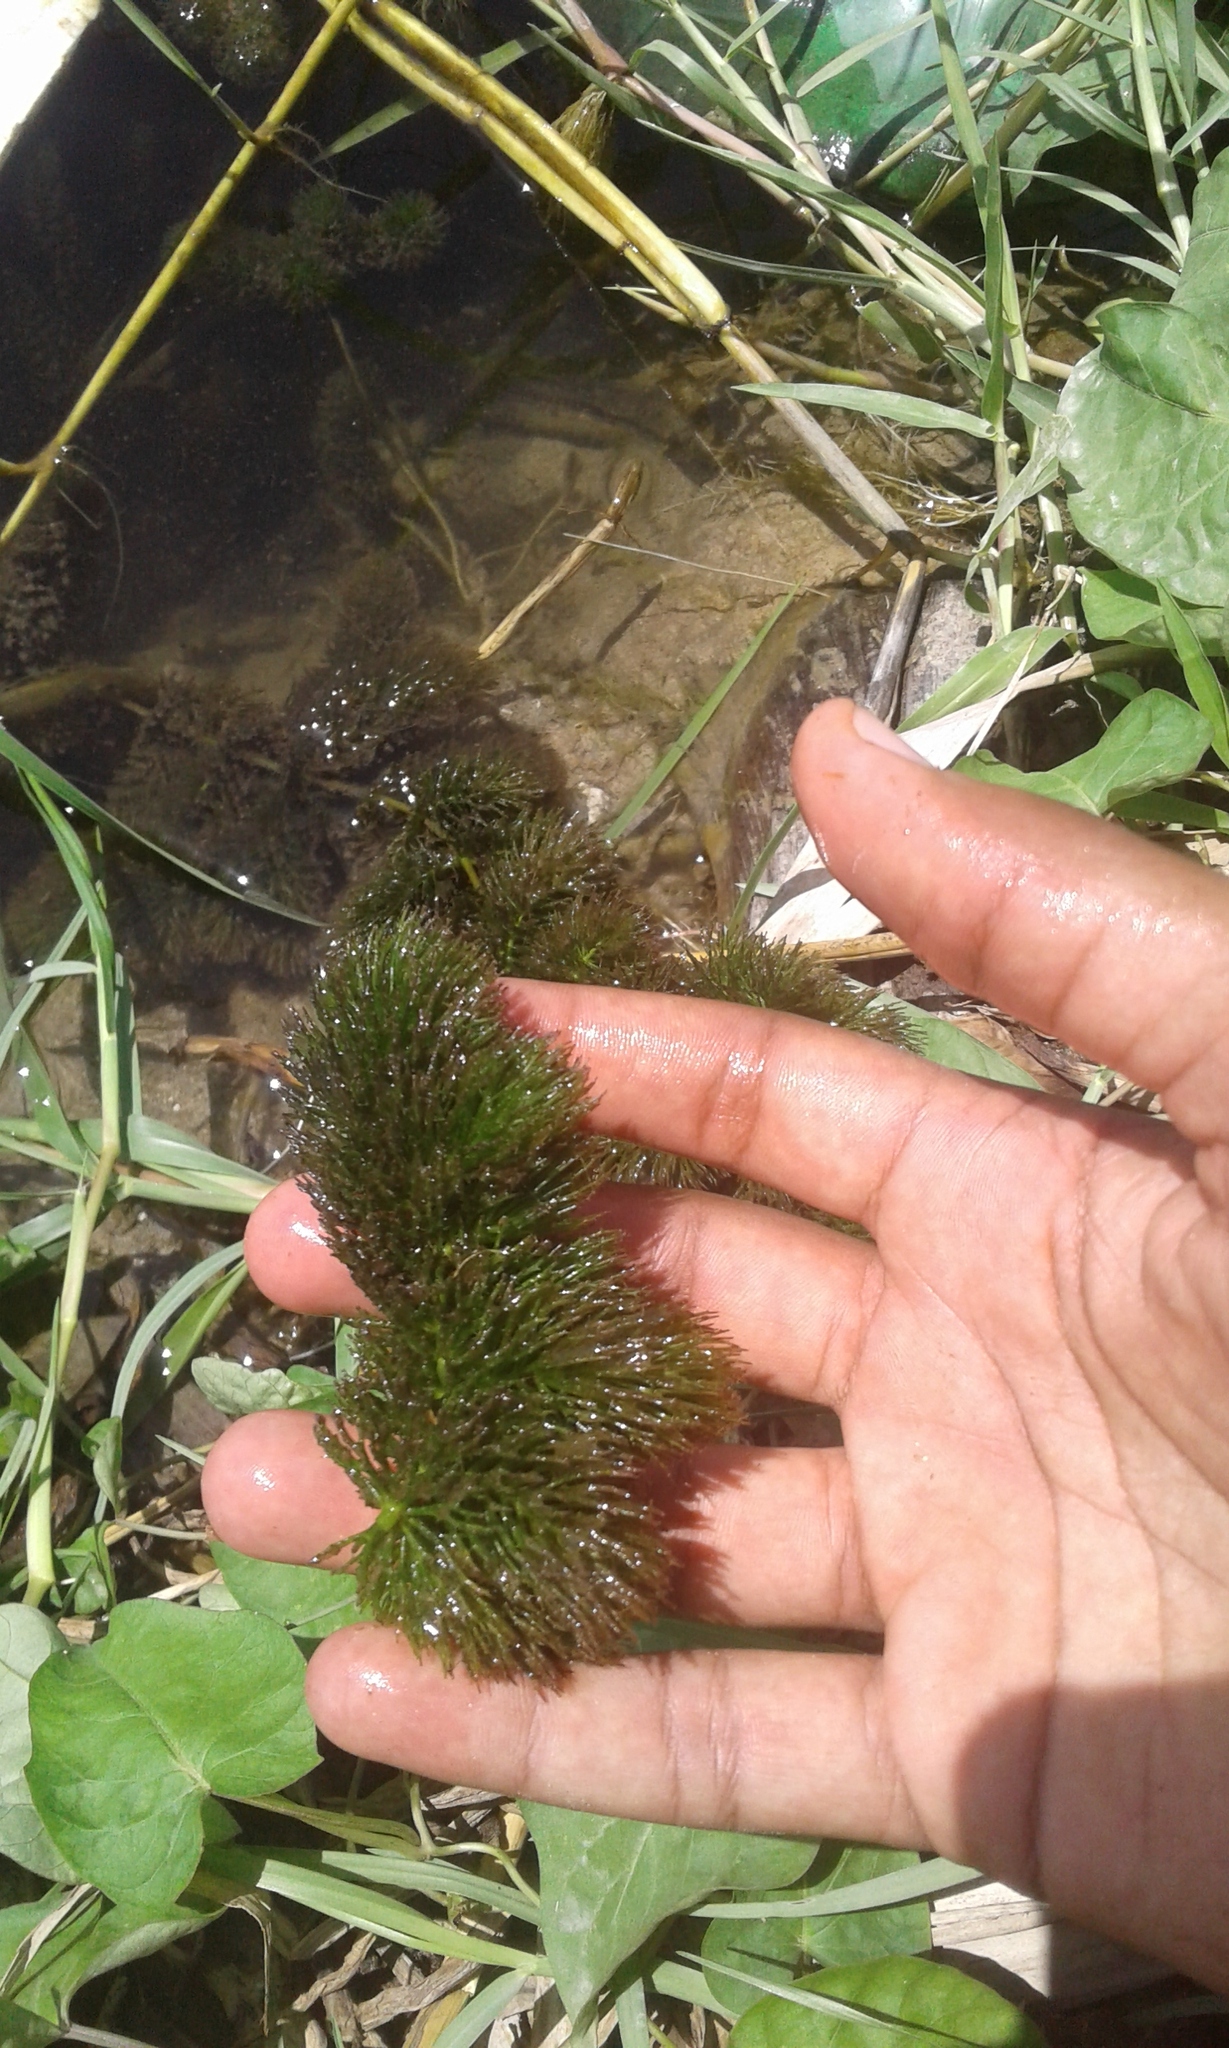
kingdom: Plantae
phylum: Tracheophyta
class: Magnoliopsida
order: Ceratophyllales
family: Ceratophyllaceae
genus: Ceratophyllum
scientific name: Ceratophyllum demersum
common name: Rigid hornwort
